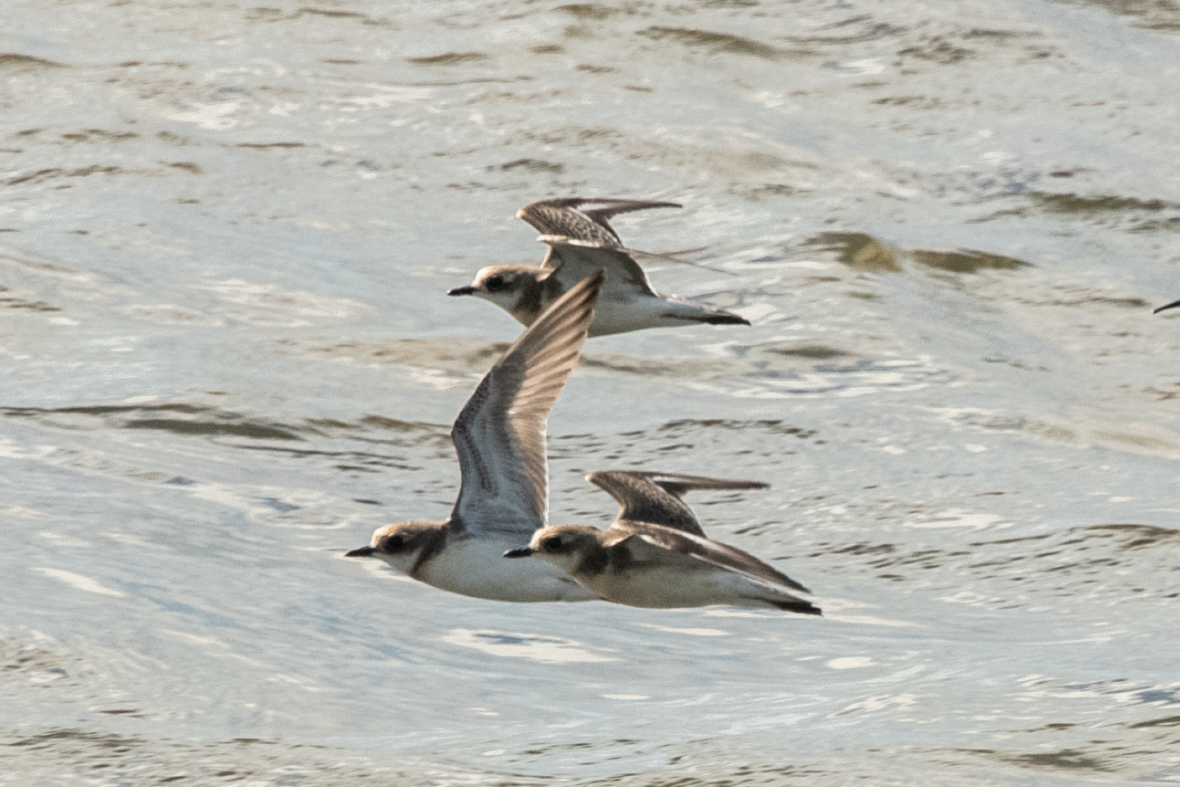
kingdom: Animalia
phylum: Chordata
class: Aves
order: Charadriiformes
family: Charadriidae
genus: Anarhynchus
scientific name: Anarhynchus
